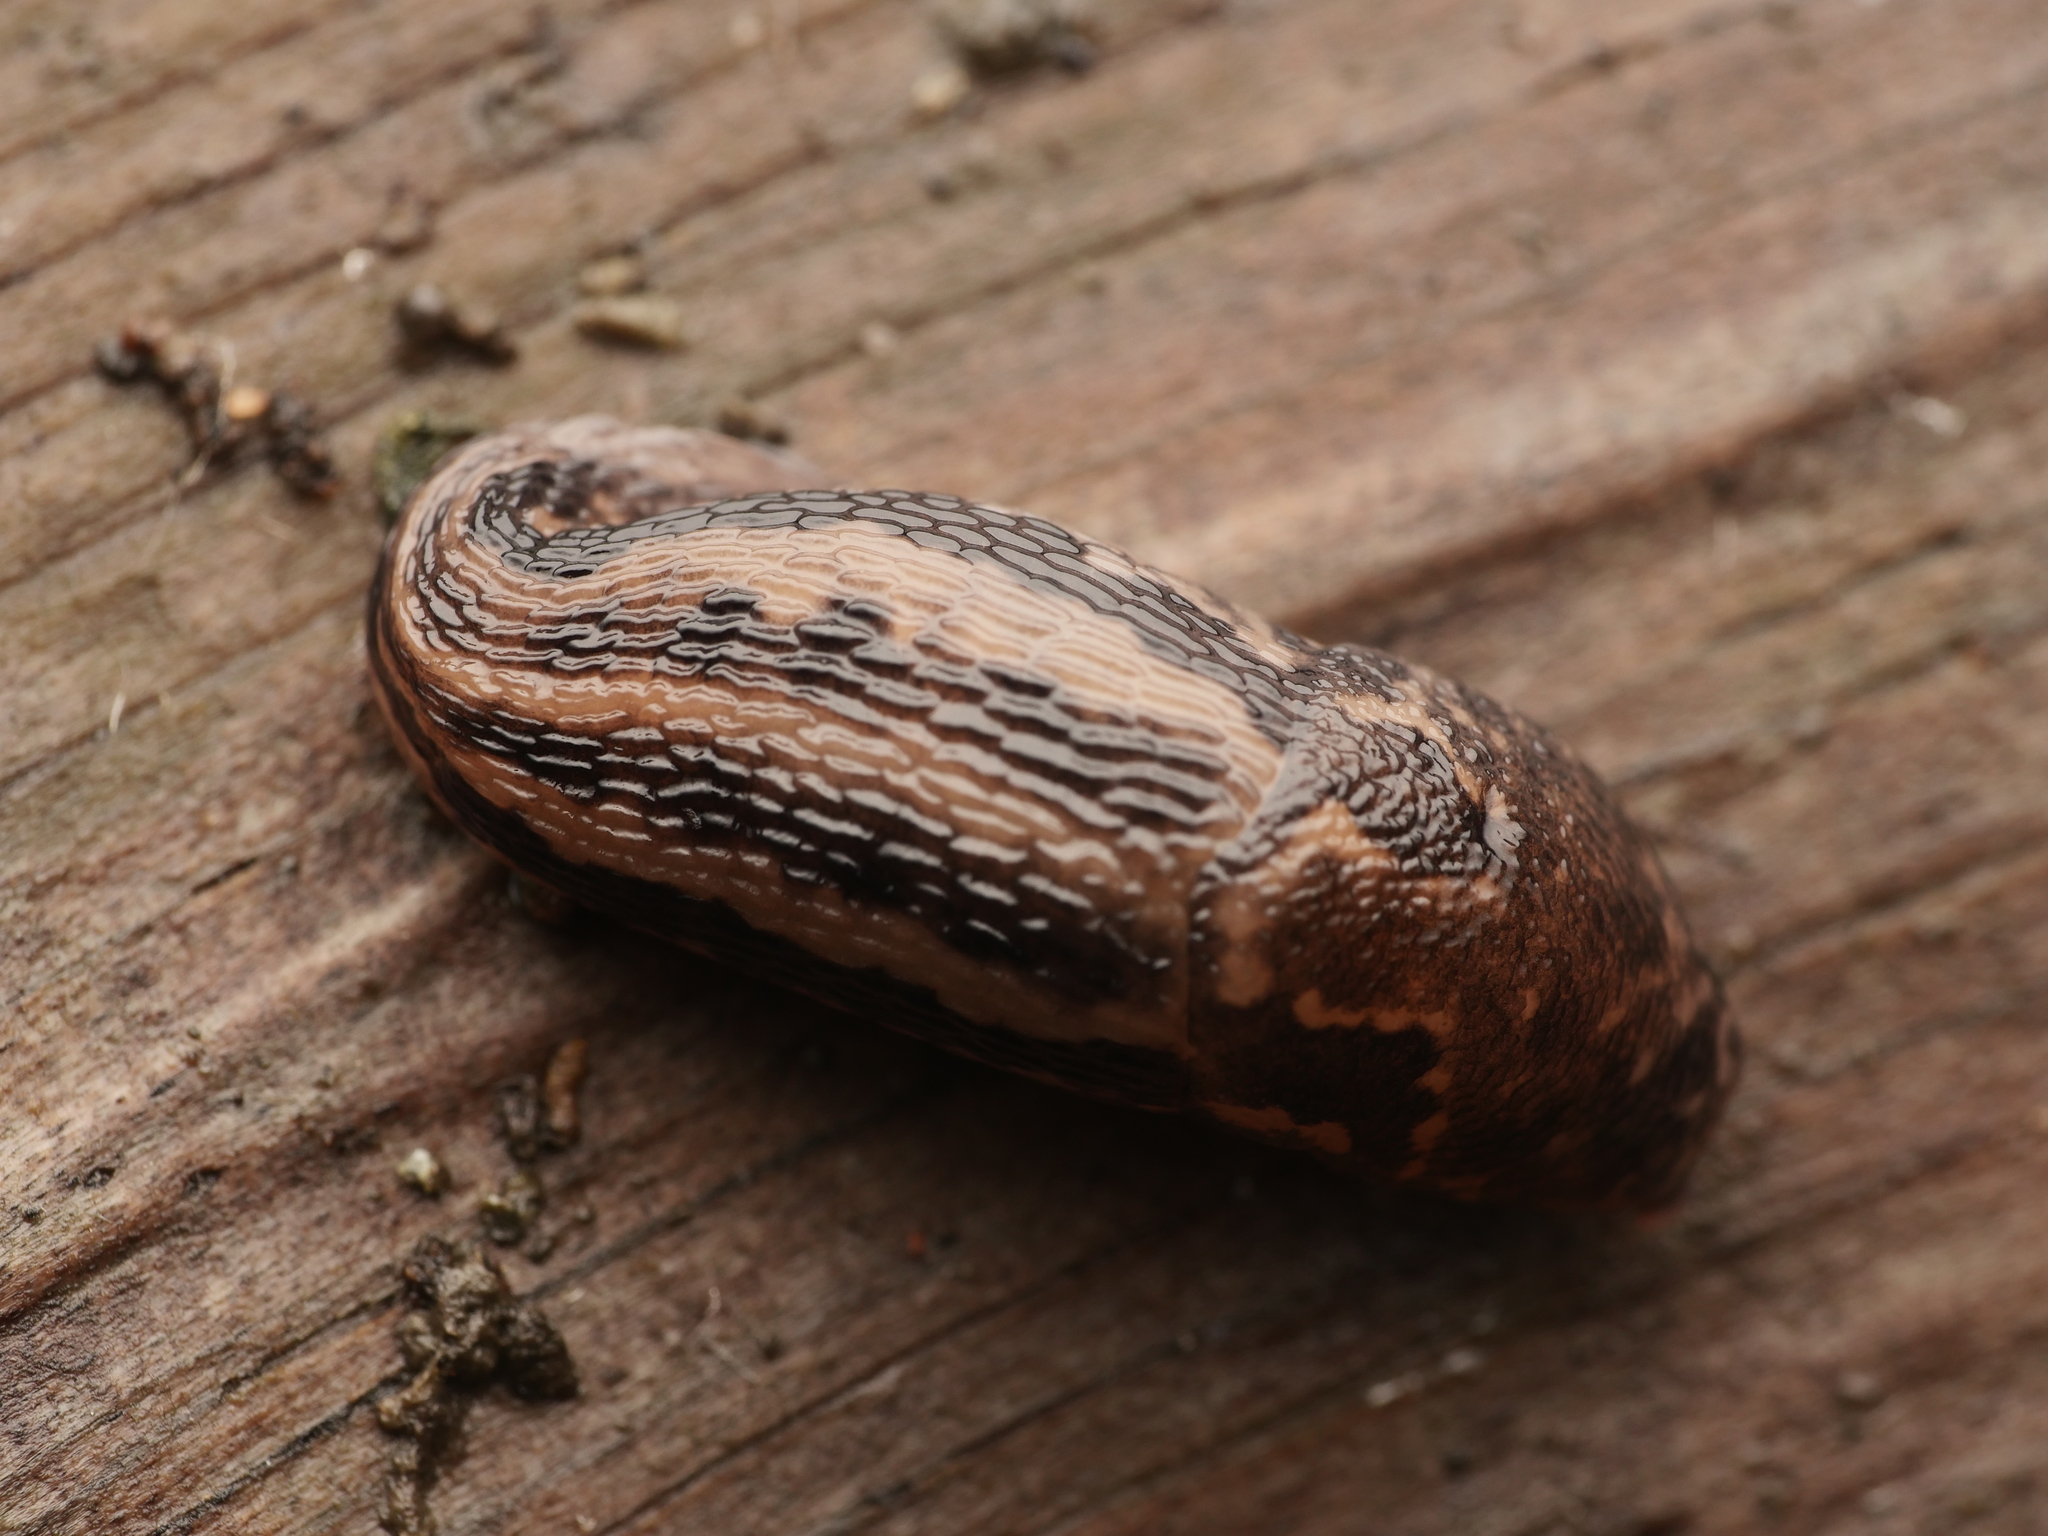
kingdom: Animalia
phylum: Mollusca
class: Gastropoda
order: Stylommatophora
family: Limacidae
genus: Limax
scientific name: Limax maximus
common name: Great grey slug
